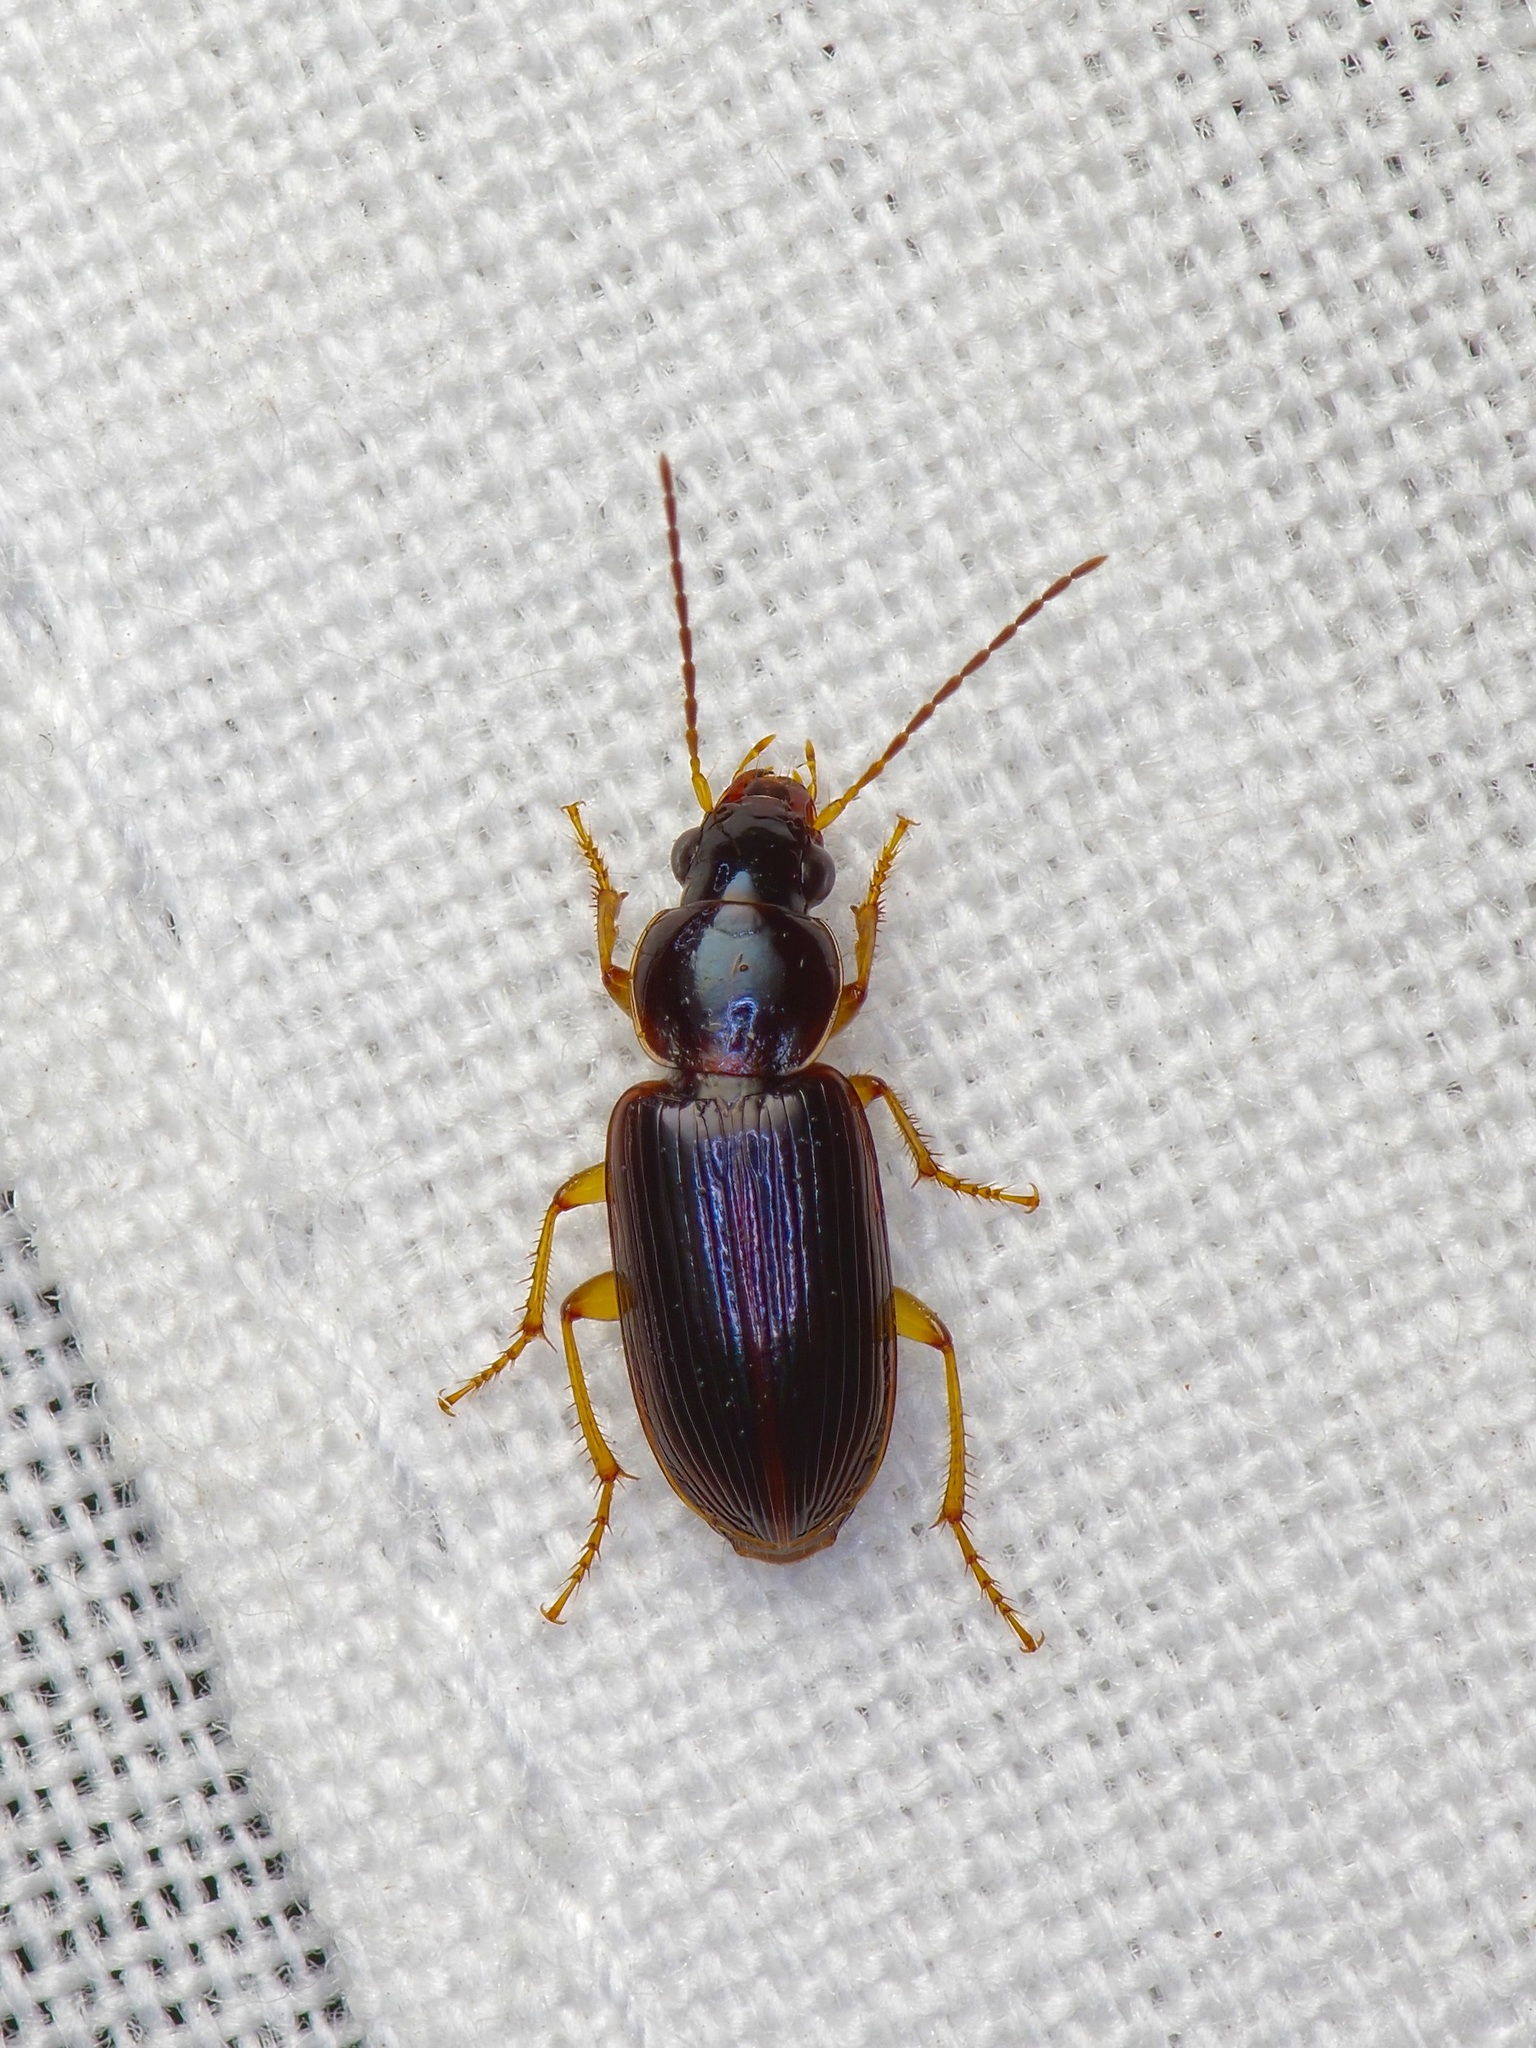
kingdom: Animalia
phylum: Arthropoda
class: Insecta
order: Coleoptera
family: Carabidae
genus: Stenolophus
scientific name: Stenolophus ochropezus
